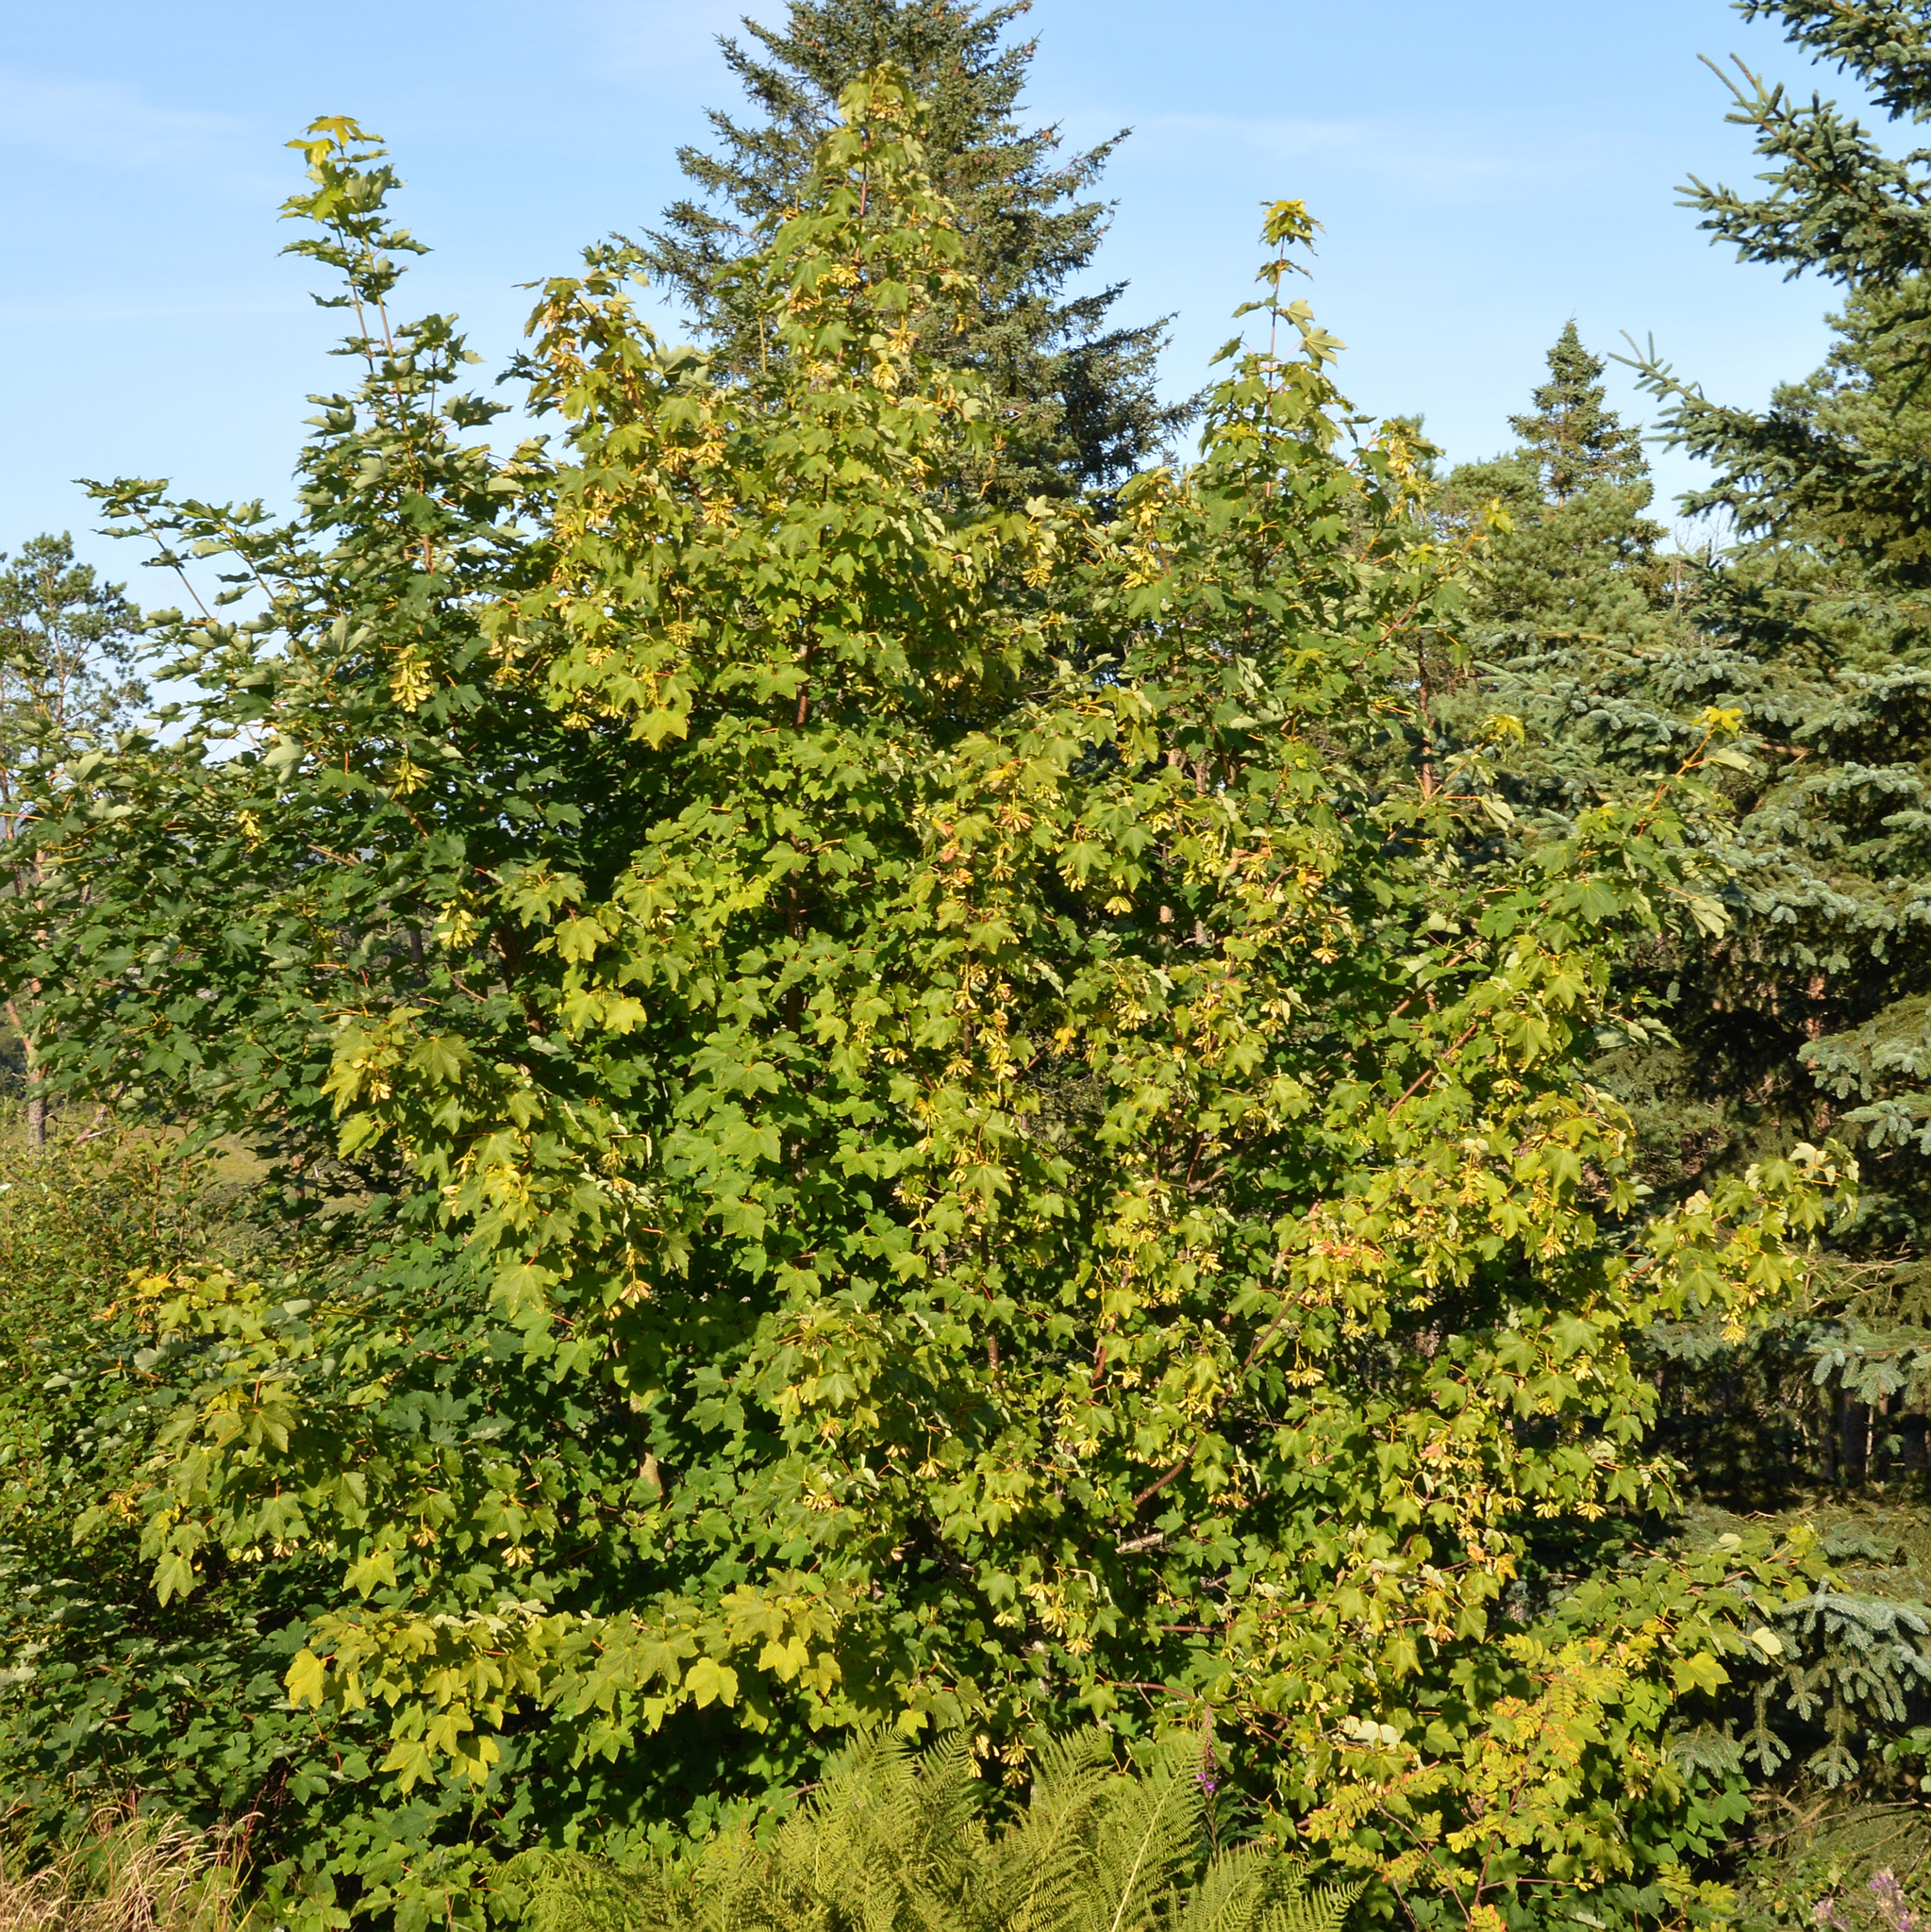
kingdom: Plantae
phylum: Tracheophyta
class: Magnoliopsida
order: Sapindales
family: Sapindaceae
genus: Acer
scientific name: Acer pseudoplatanus
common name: Sycamore
